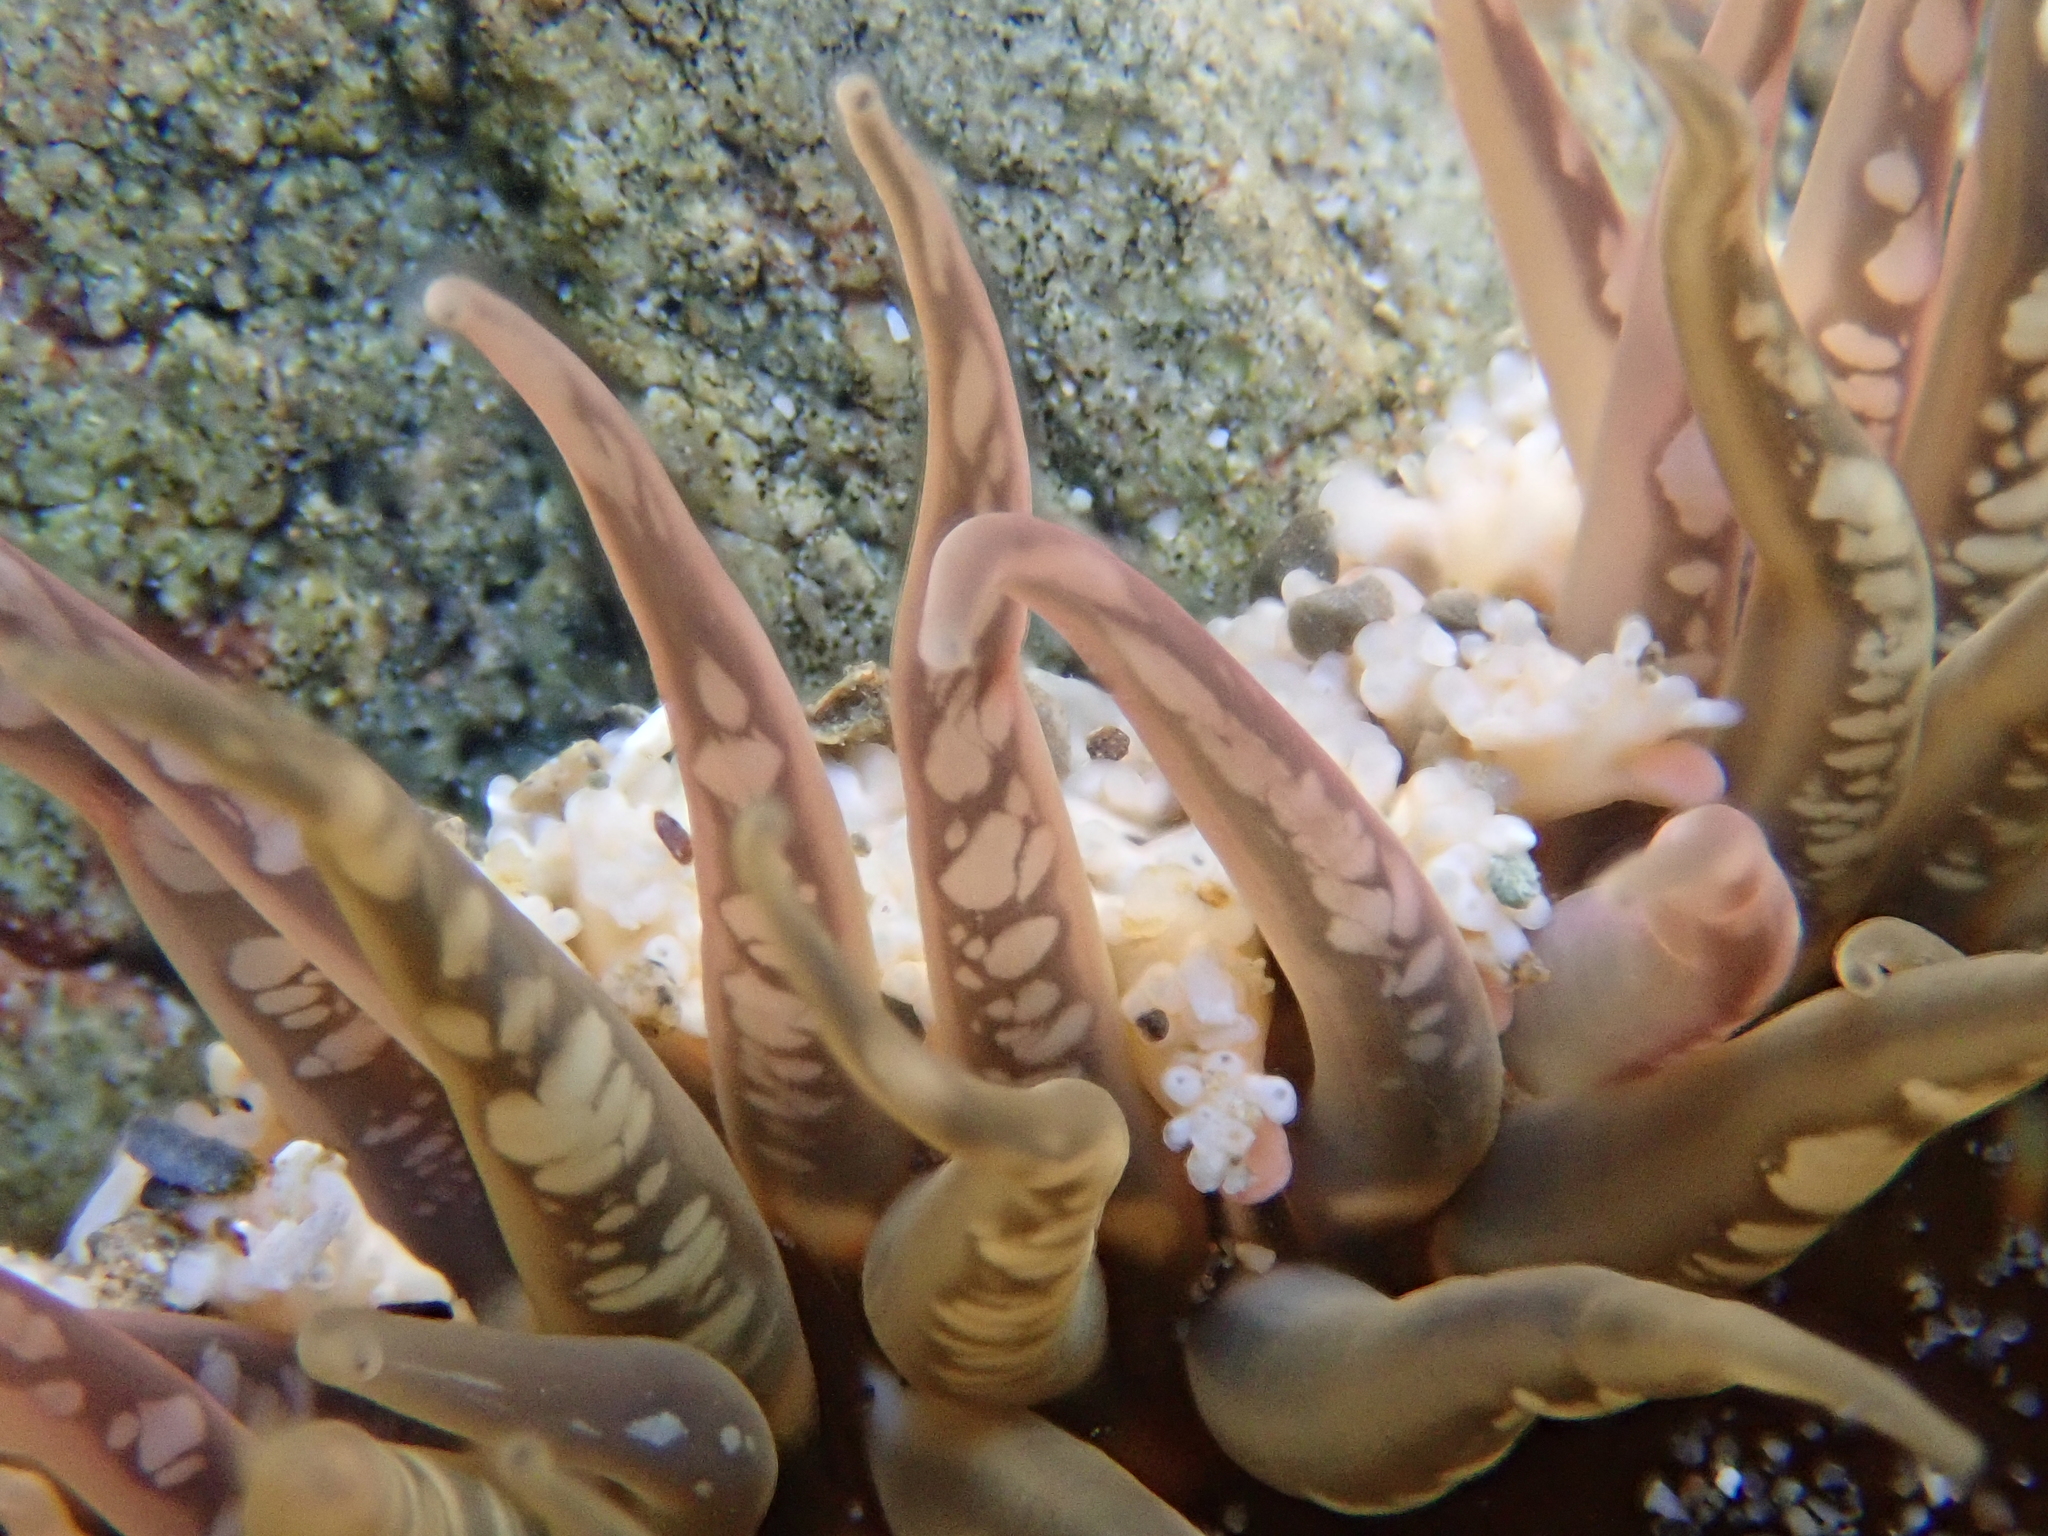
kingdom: Animalia
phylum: Cnidaria
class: Anthozoa
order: Actiniaria
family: Actiniidae
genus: Oulactis
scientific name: Oulactis muscosa
